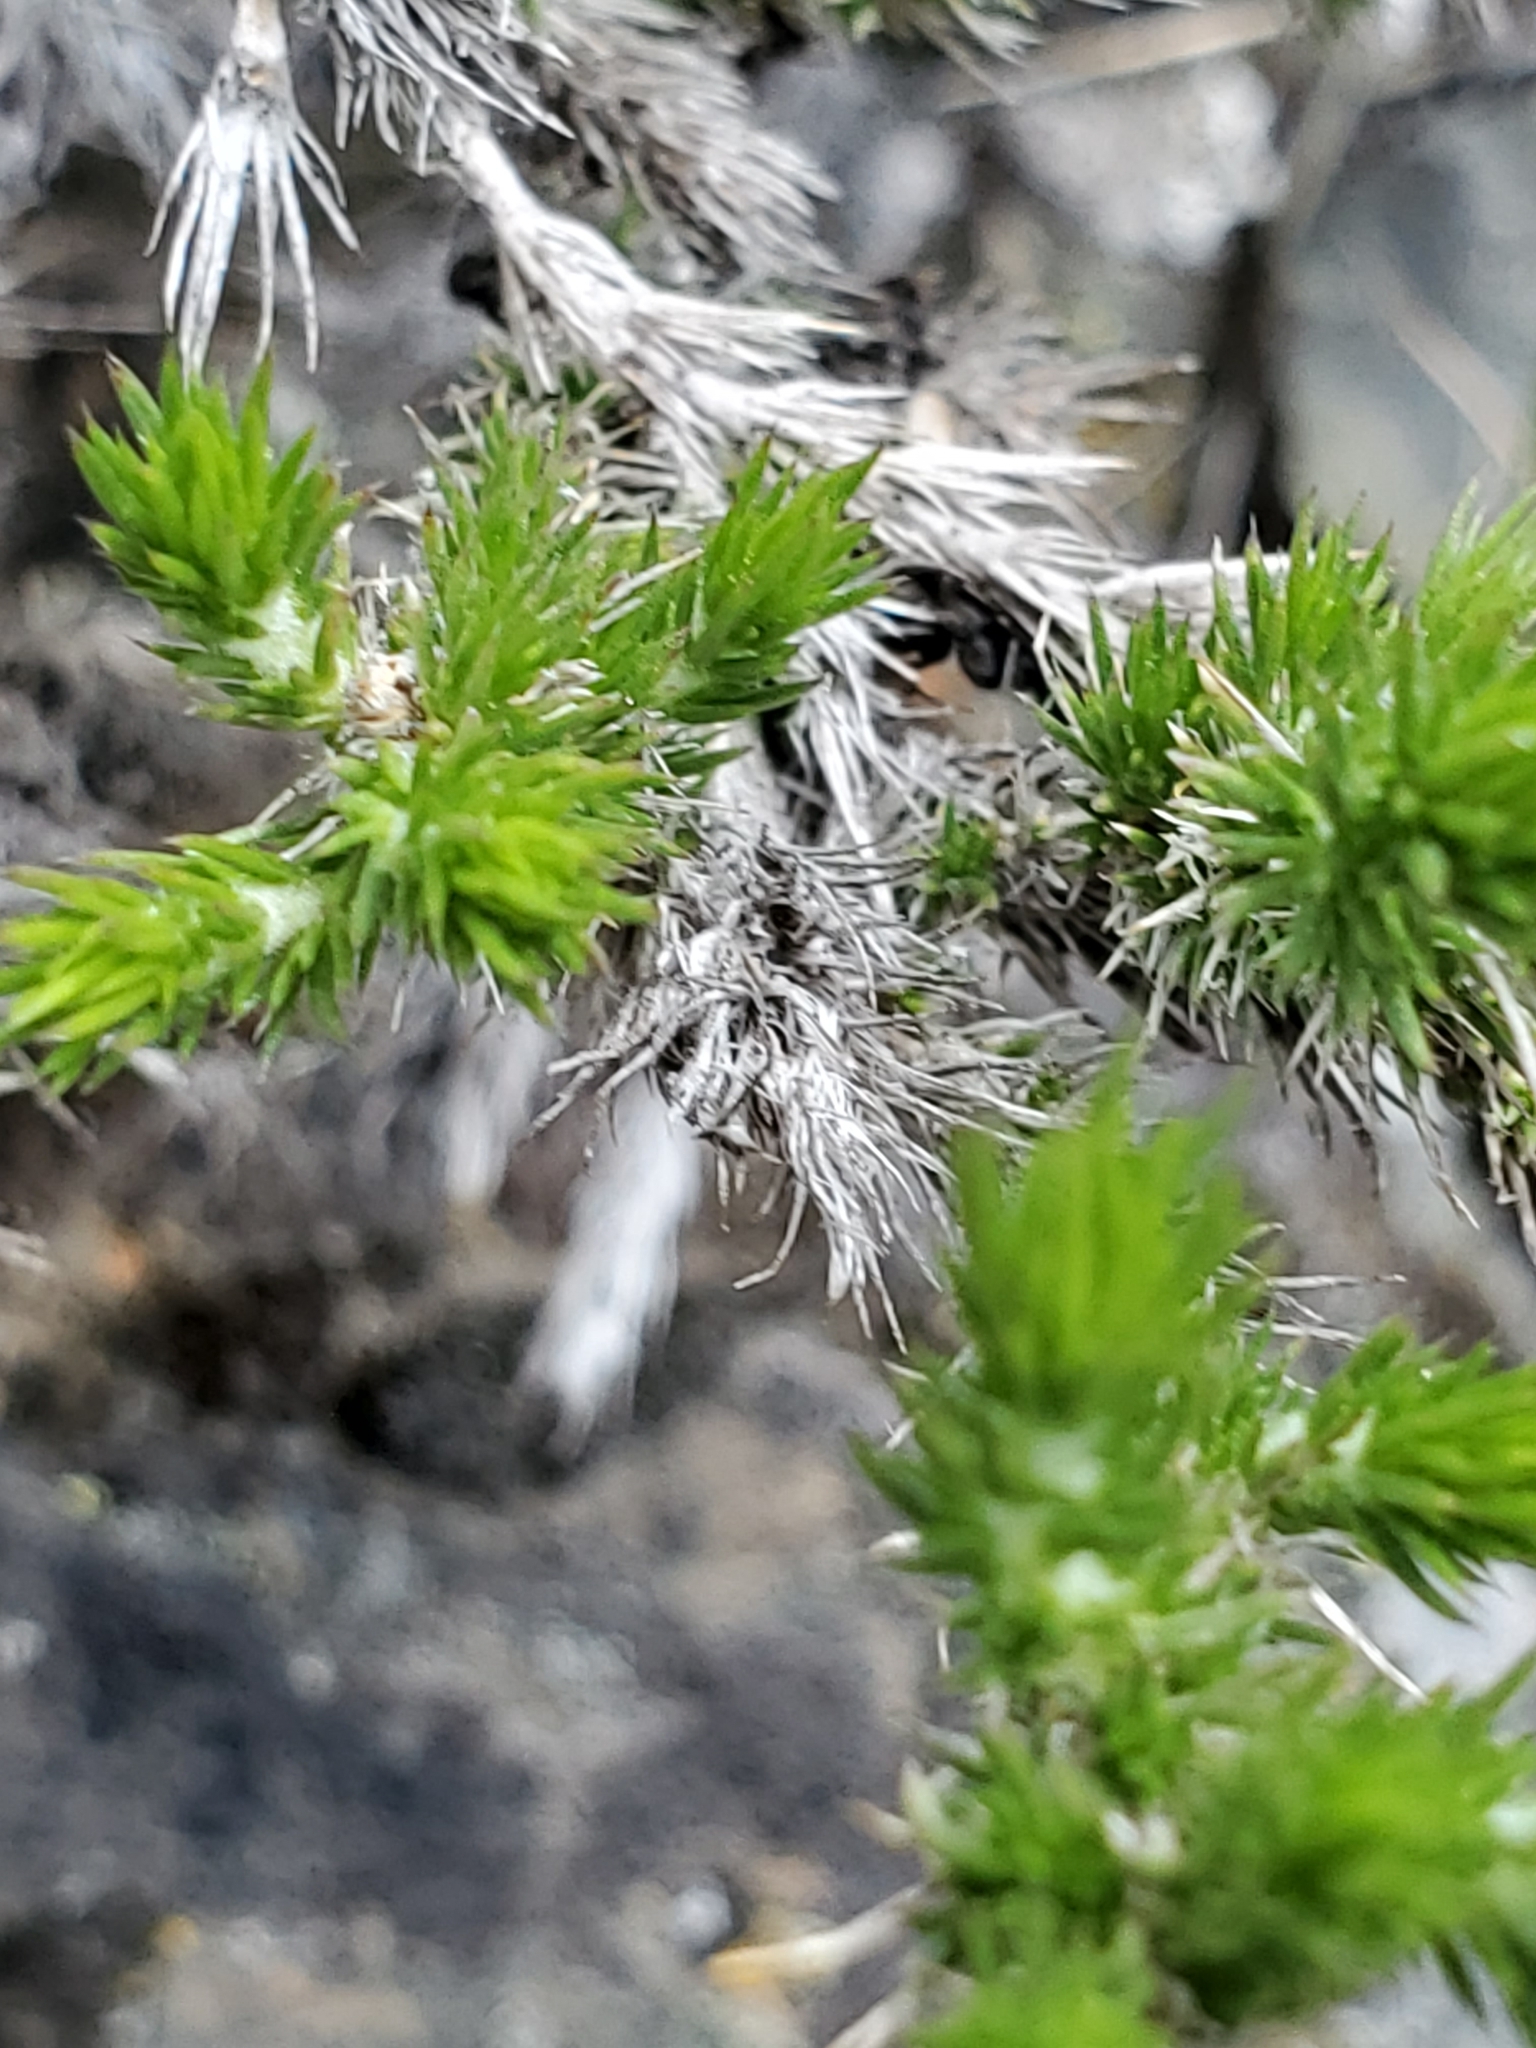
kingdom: Plantae
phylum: Tracheophyta
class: Magnoliopsida
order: Ericales
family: Polemoniaceae
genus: Linanthus
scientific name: Linanthus pungens
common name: Granite prickly phlox
